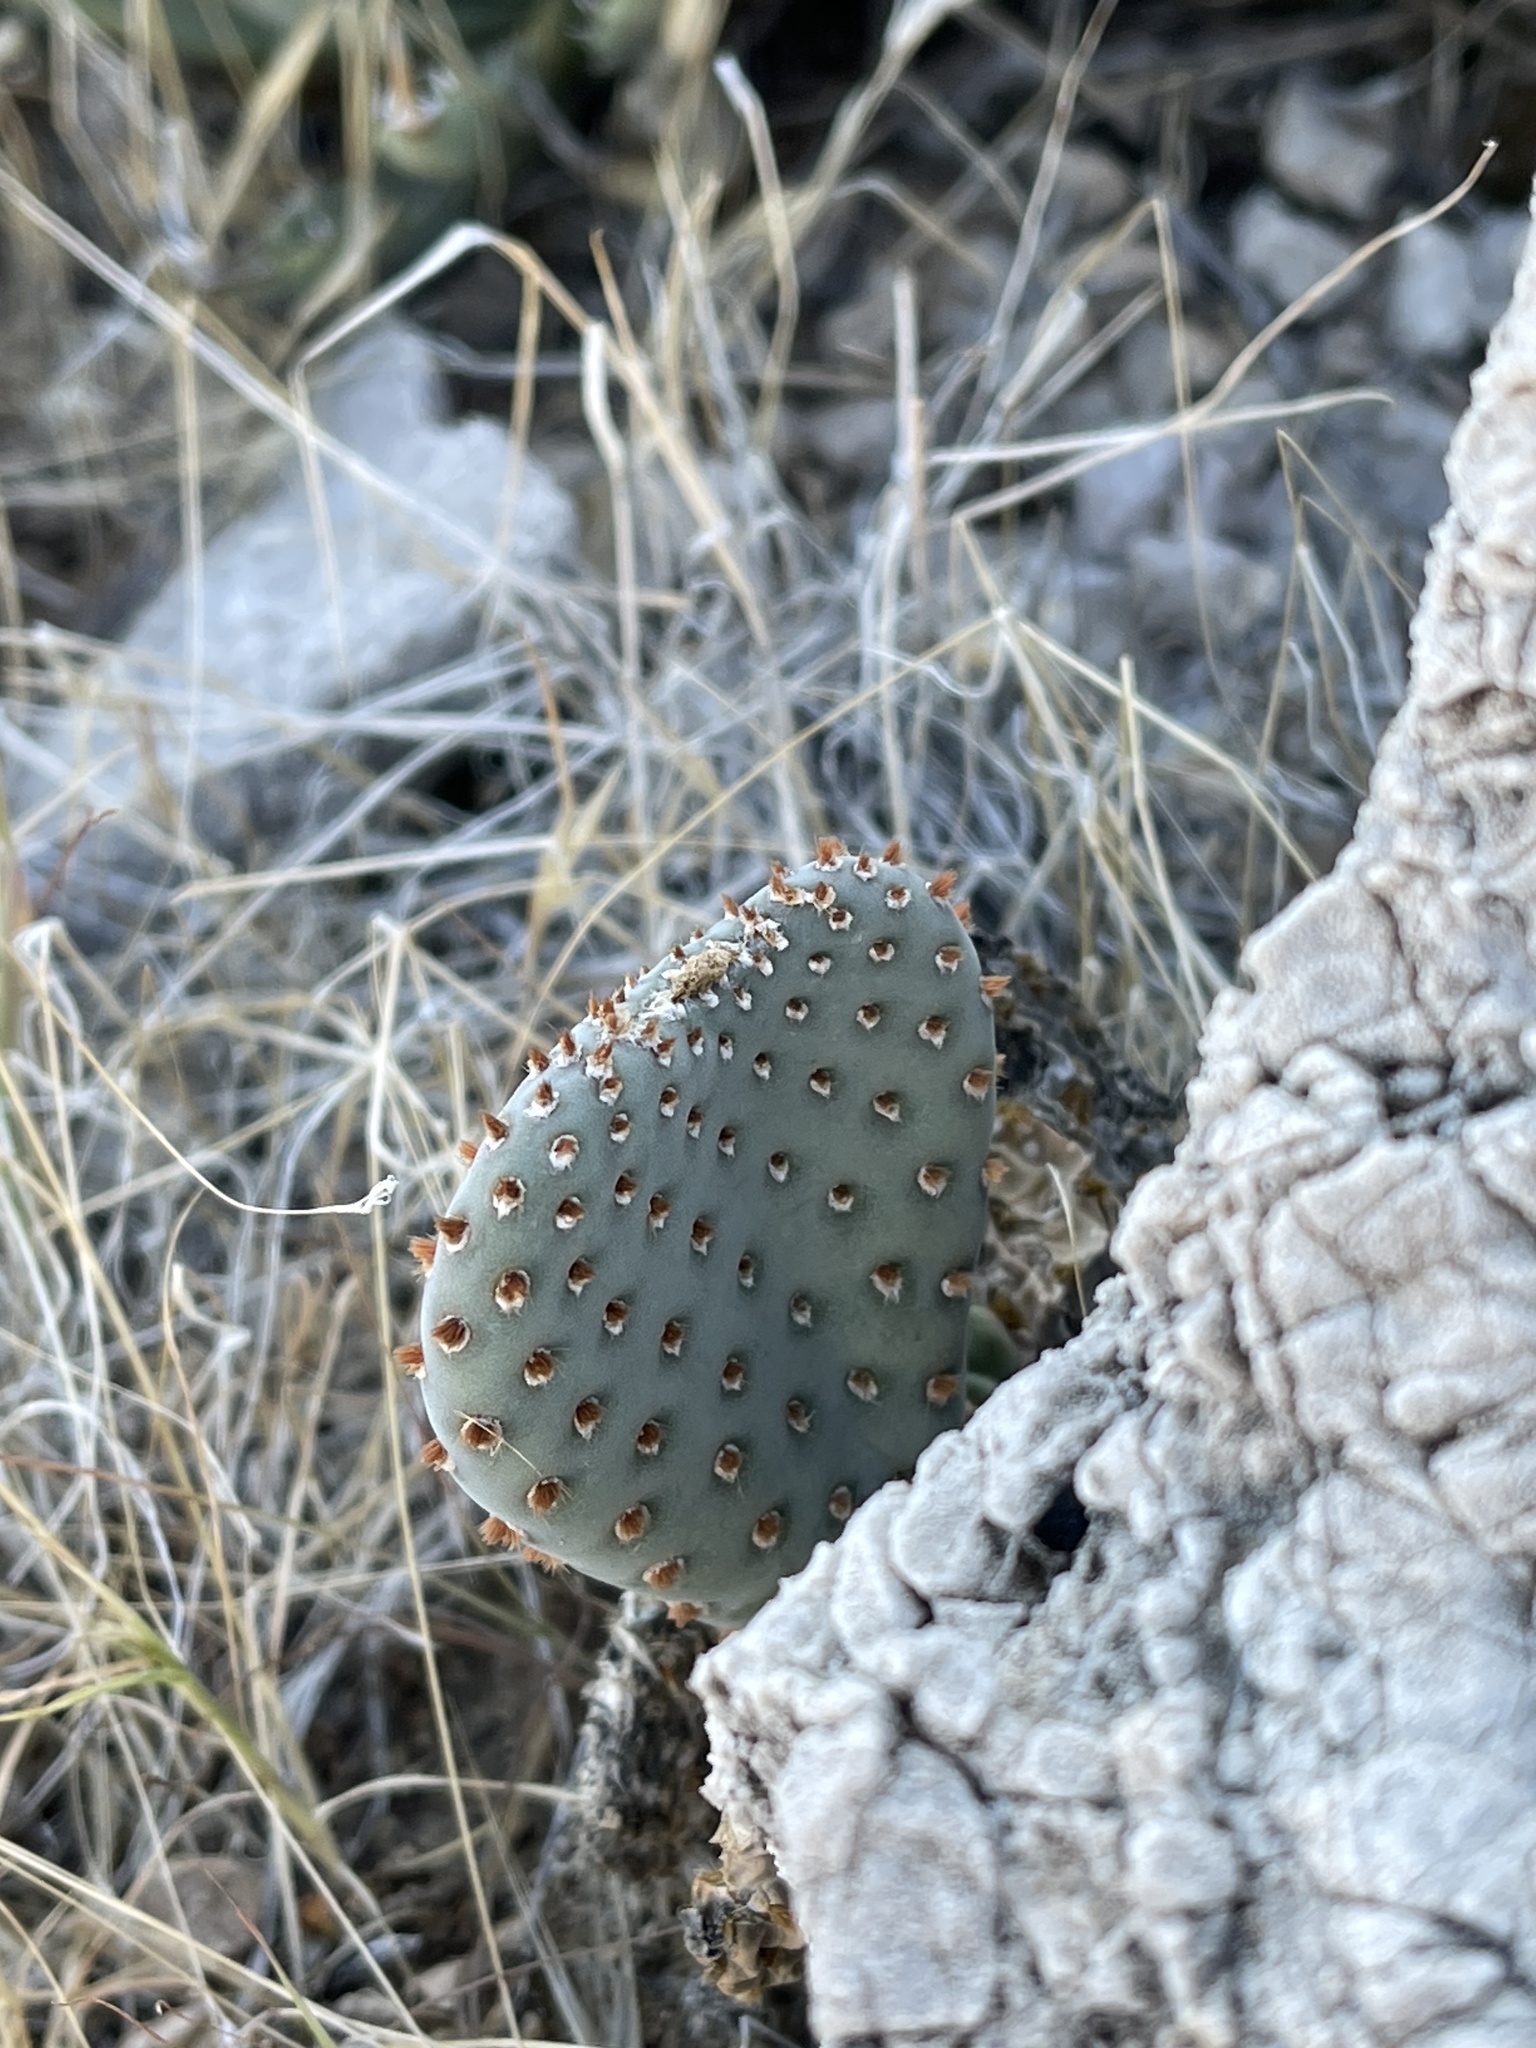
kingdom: Plantae
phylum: Tracheophyta
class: Magnoliopsida
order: Caryophyllales
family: Cactaceae
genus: Opuntia
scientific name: Opuntia basilaris
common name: Beavertail prickly-pear
